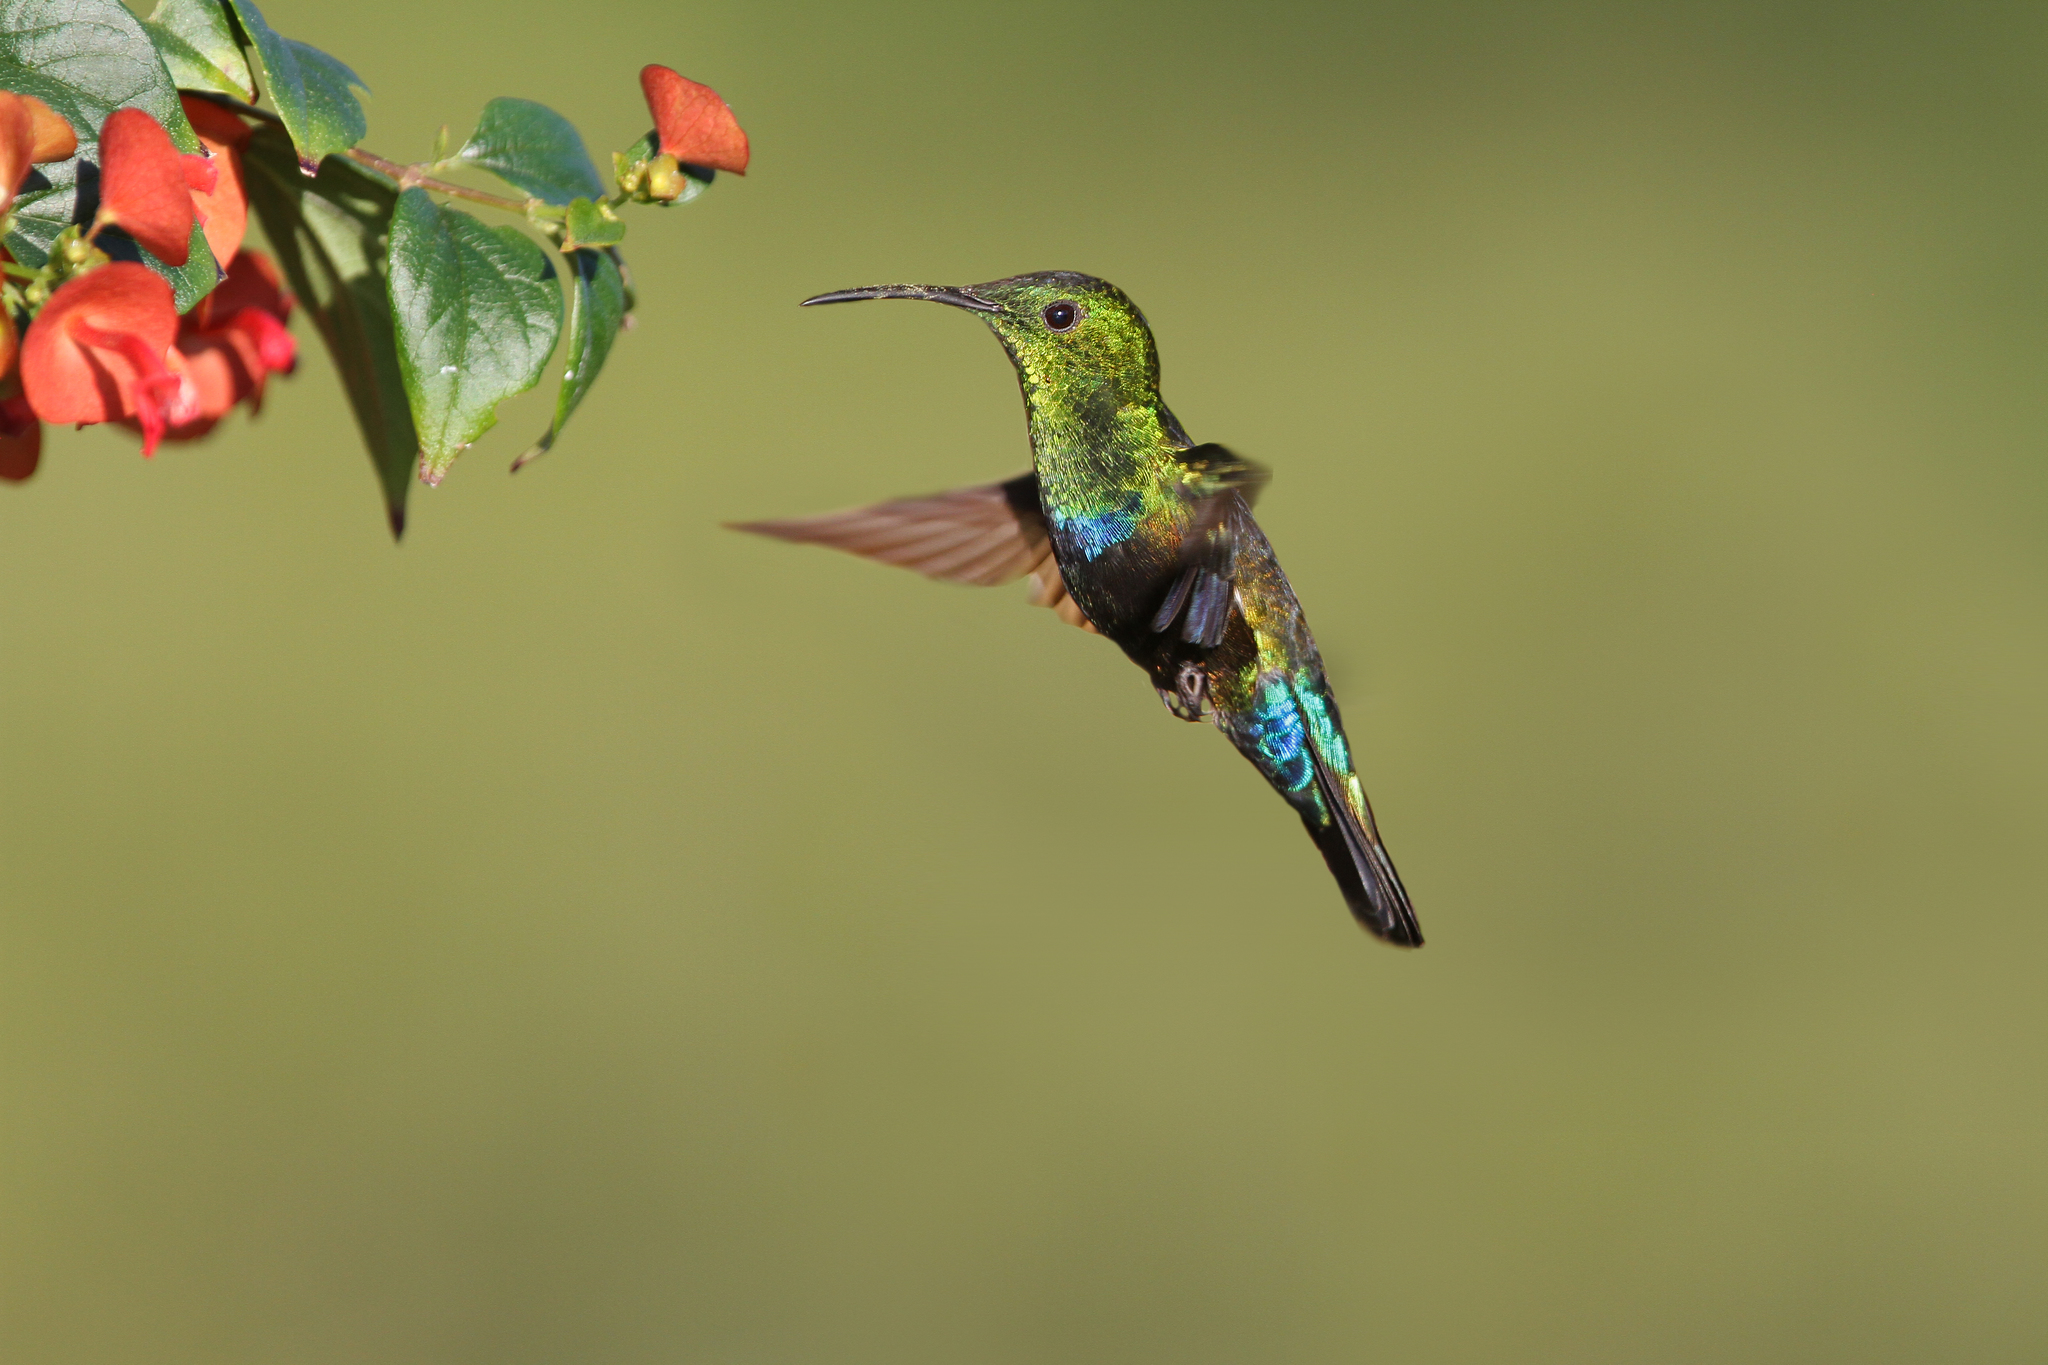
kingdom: Animalia
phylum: Chordata
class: Aves
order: Apodiformes
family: Trochilidae
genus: Eulampis
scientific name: Eulampis holosericeus
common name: Green-throated carib
